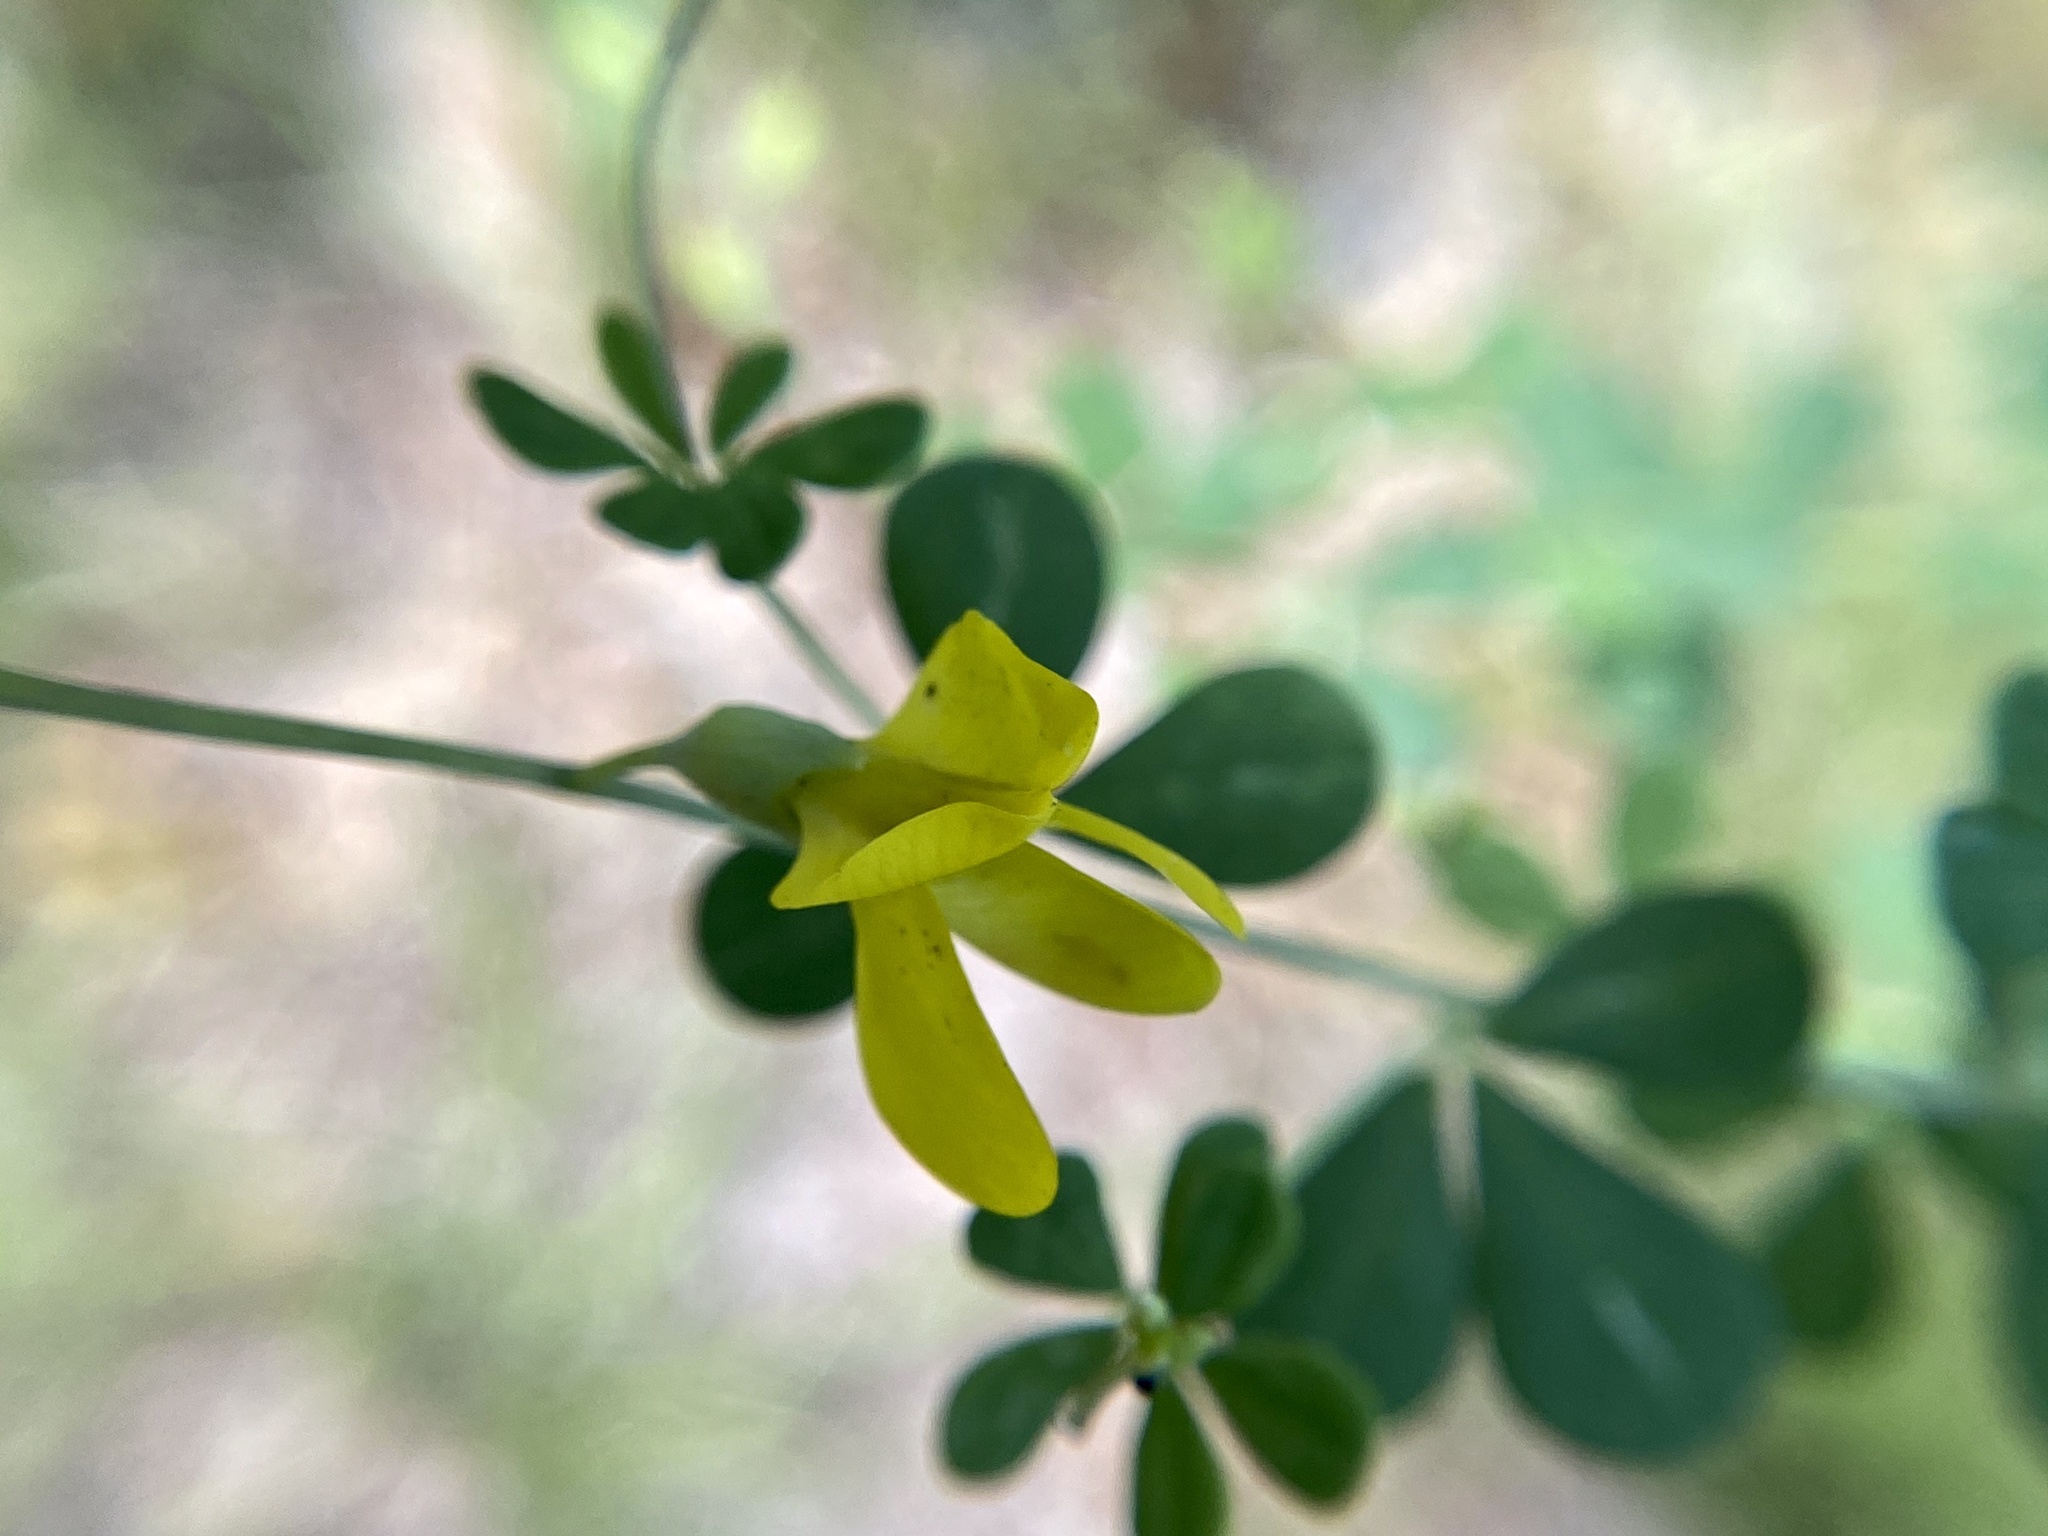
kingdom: Plantae
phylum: Tracheophyta
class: Magnoliopsida
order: Fabales
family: Fabaceae
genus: Baptisia
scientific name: Baptisia tinctoria
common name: Wild indigo
